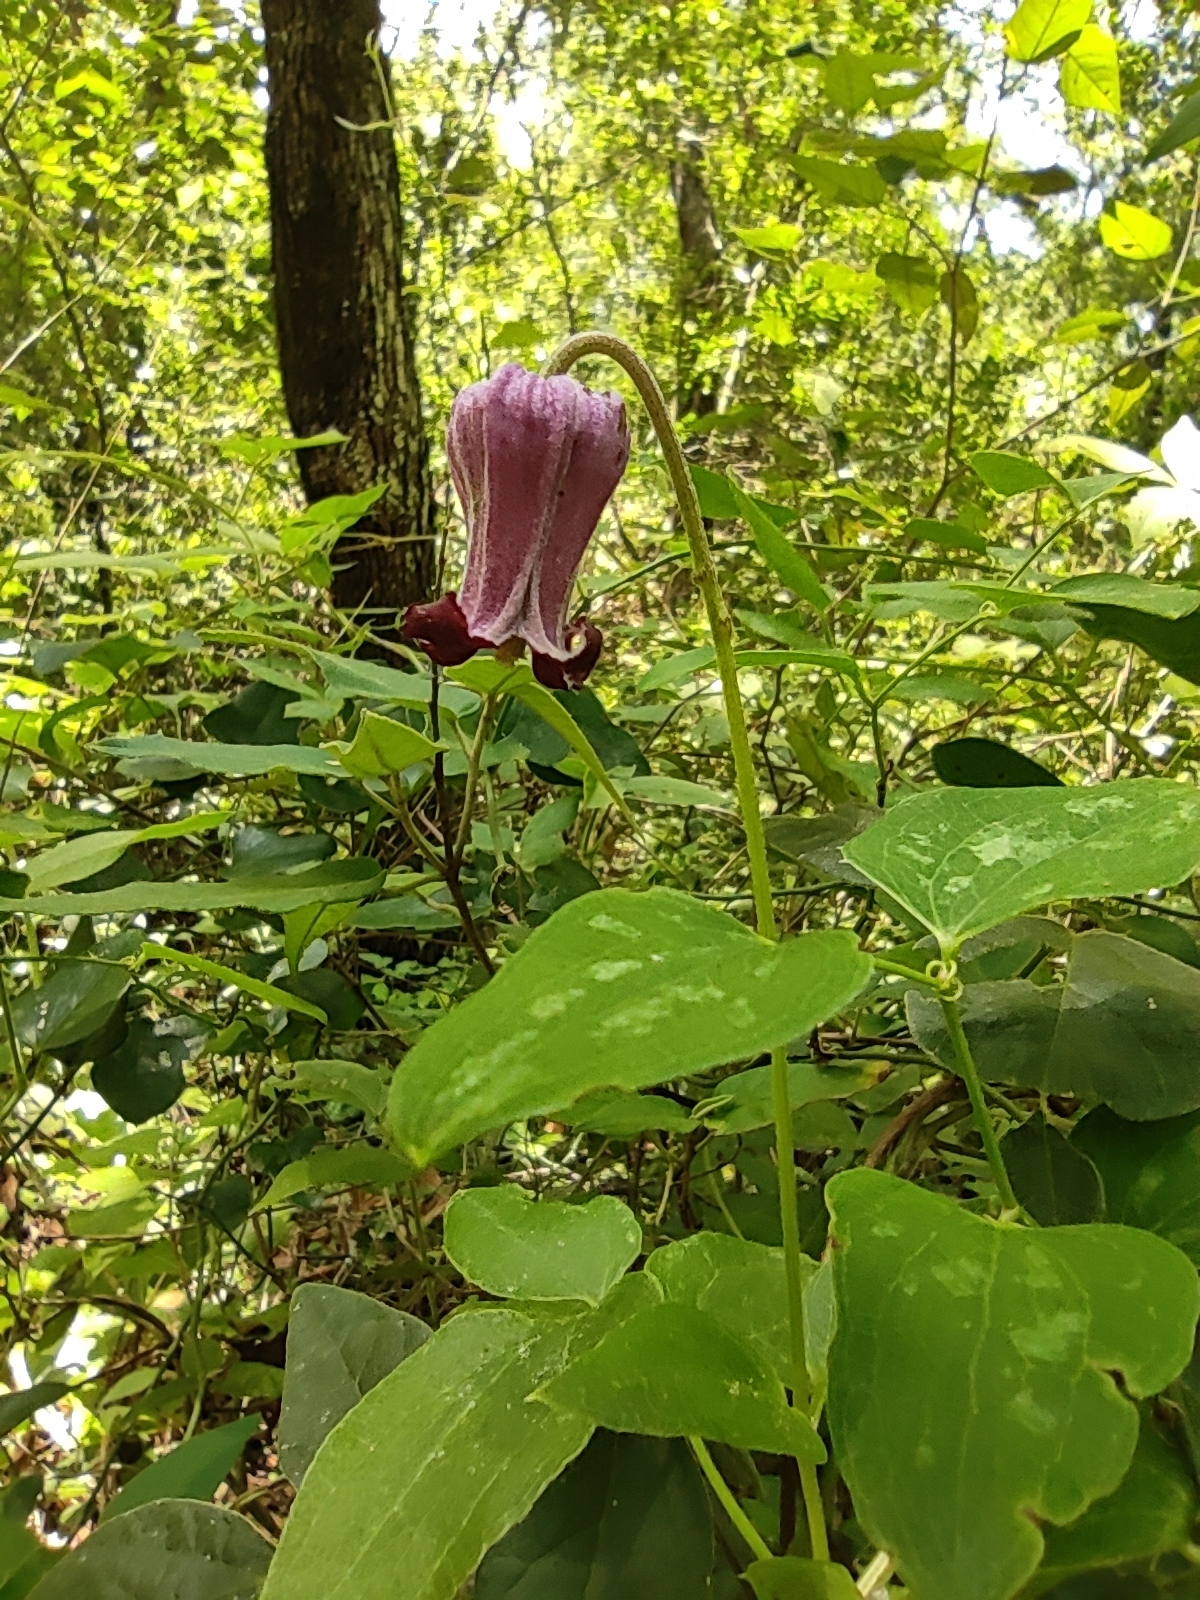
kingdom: Plantae
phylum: Tracheophyta
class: Magnoliopsida
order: Ranunculales
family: Ranunculaceae
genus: Clematis
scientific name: Clematis pitcheri
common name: Bellflower clematis
